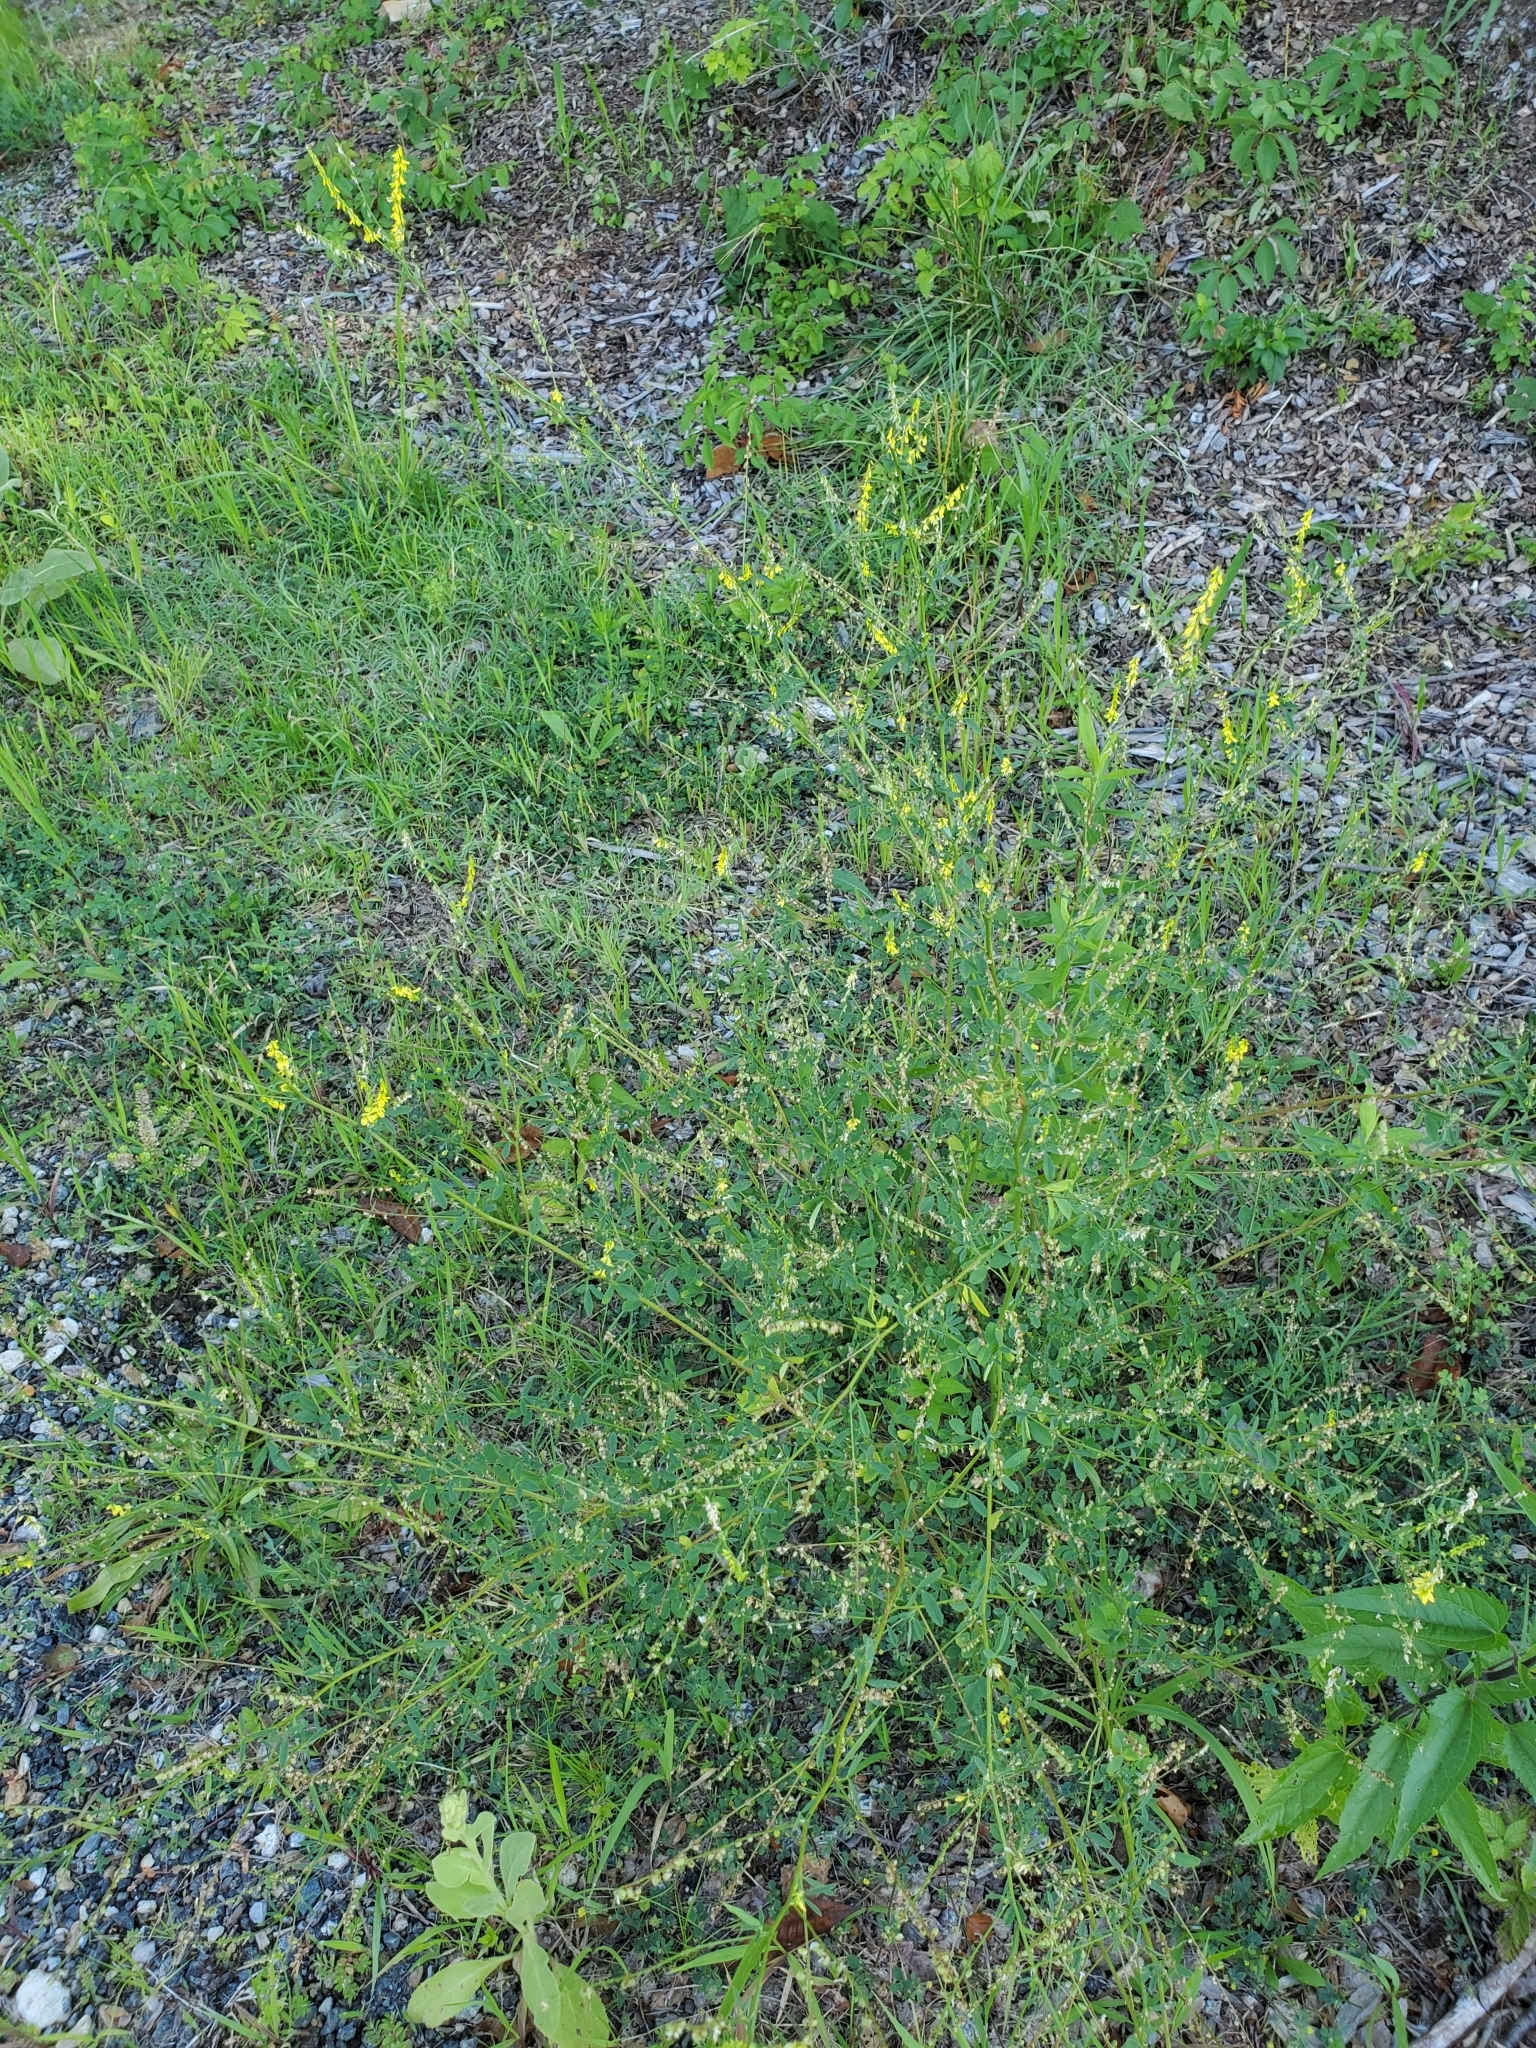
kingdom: Plantae
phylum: Tracheophyta
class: Magnoliopsida
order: Fabales
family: Fabaceae
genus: Melilotus
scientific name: Melilotus officinalis
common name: Sweetclover
